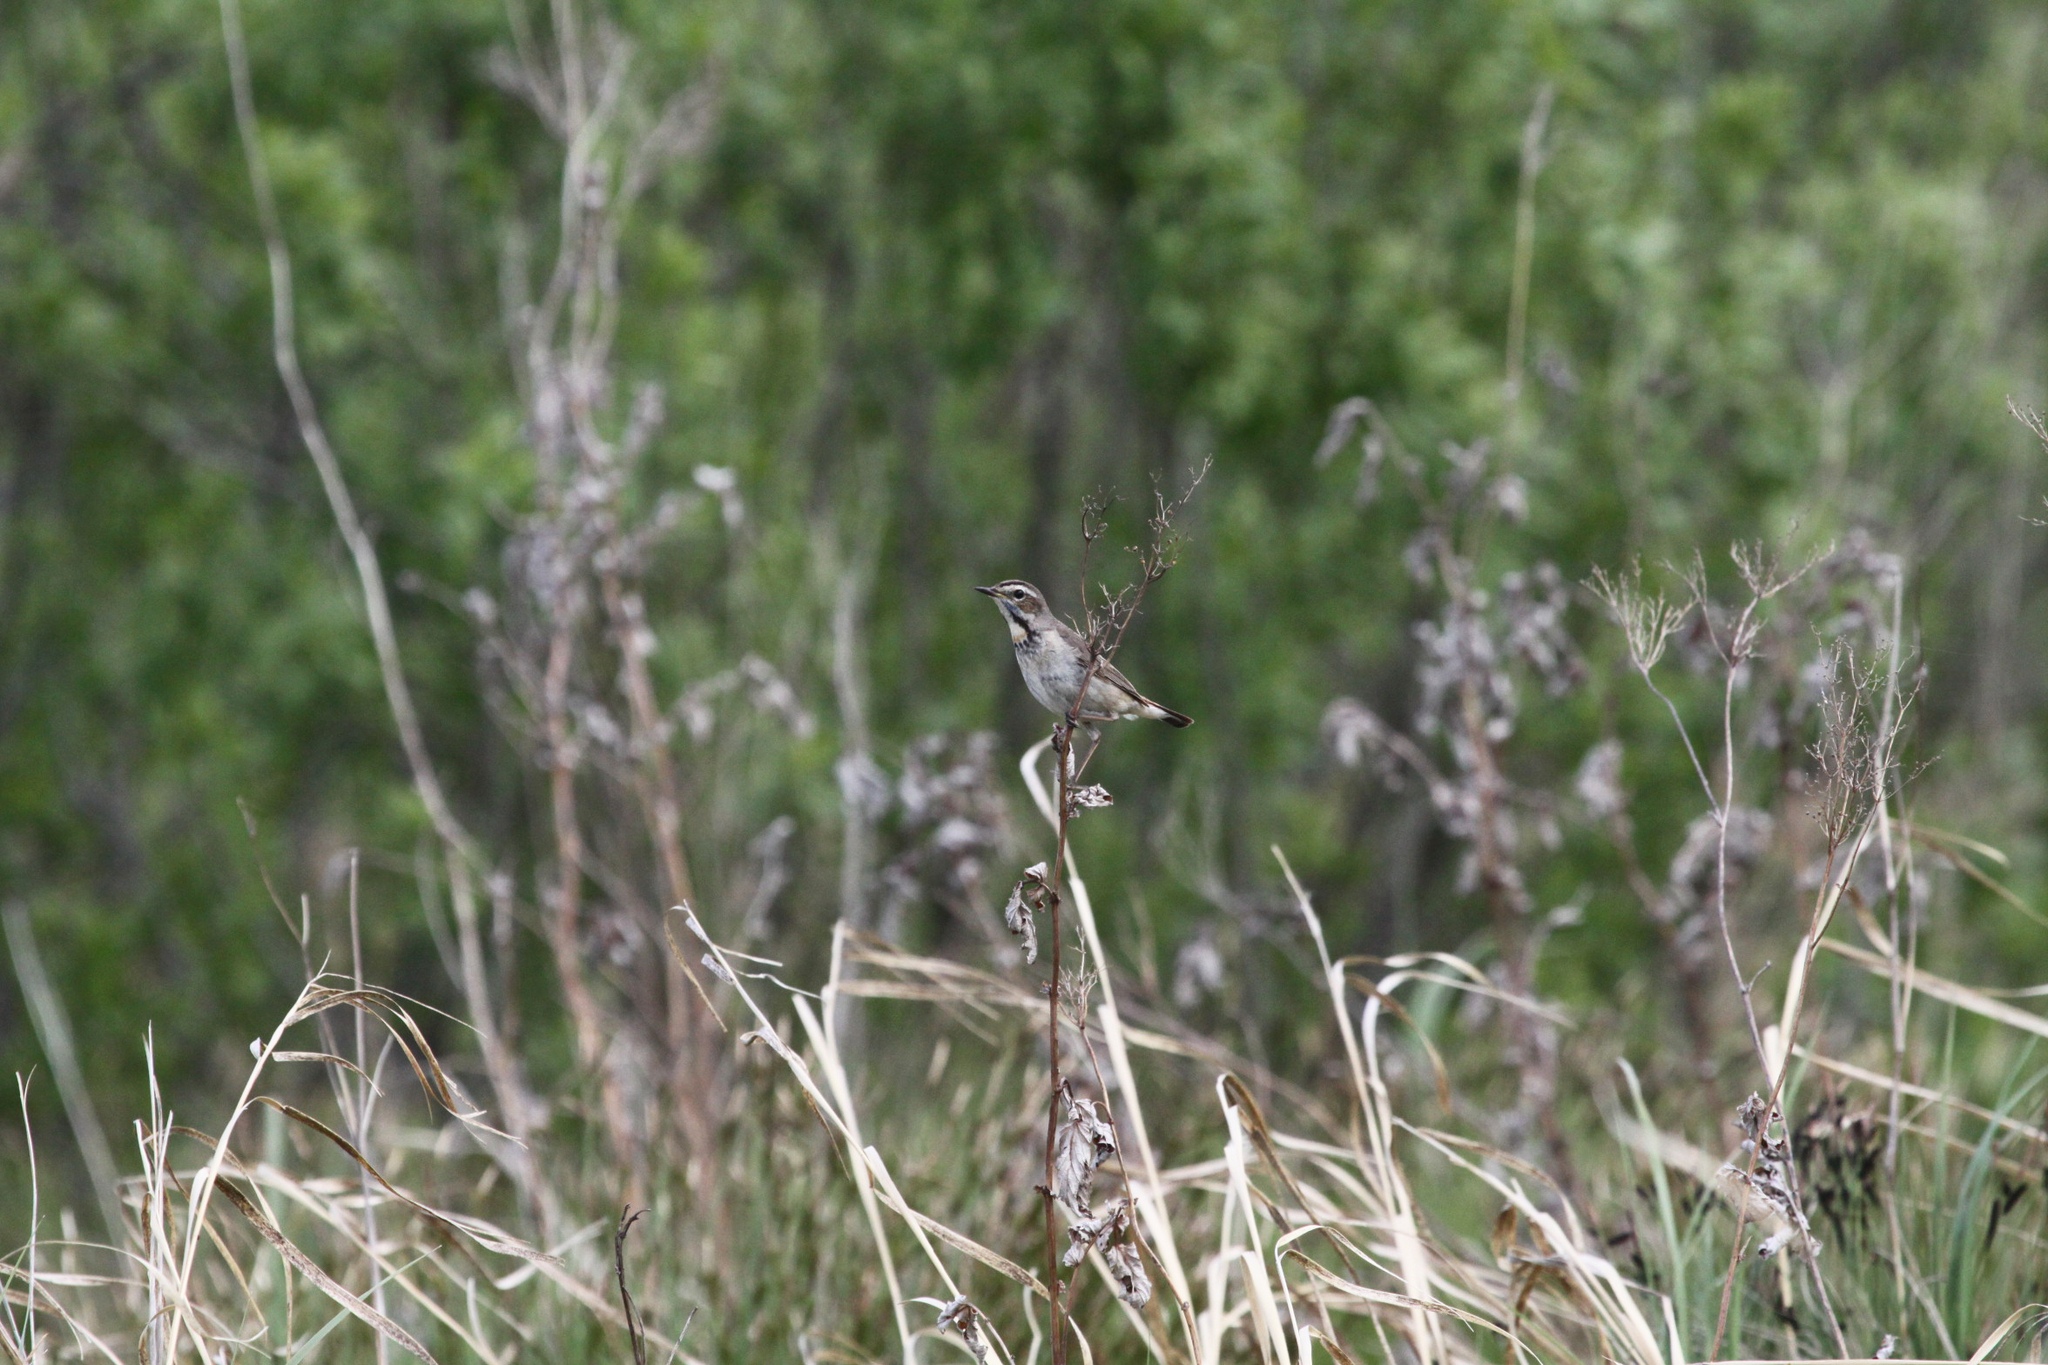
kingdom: Animalia
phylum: Chordata
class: Aves
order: Passeriformes
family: Muscicapidae
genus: Luscinia
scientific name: Luscinia svecica
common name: Bluethroat
